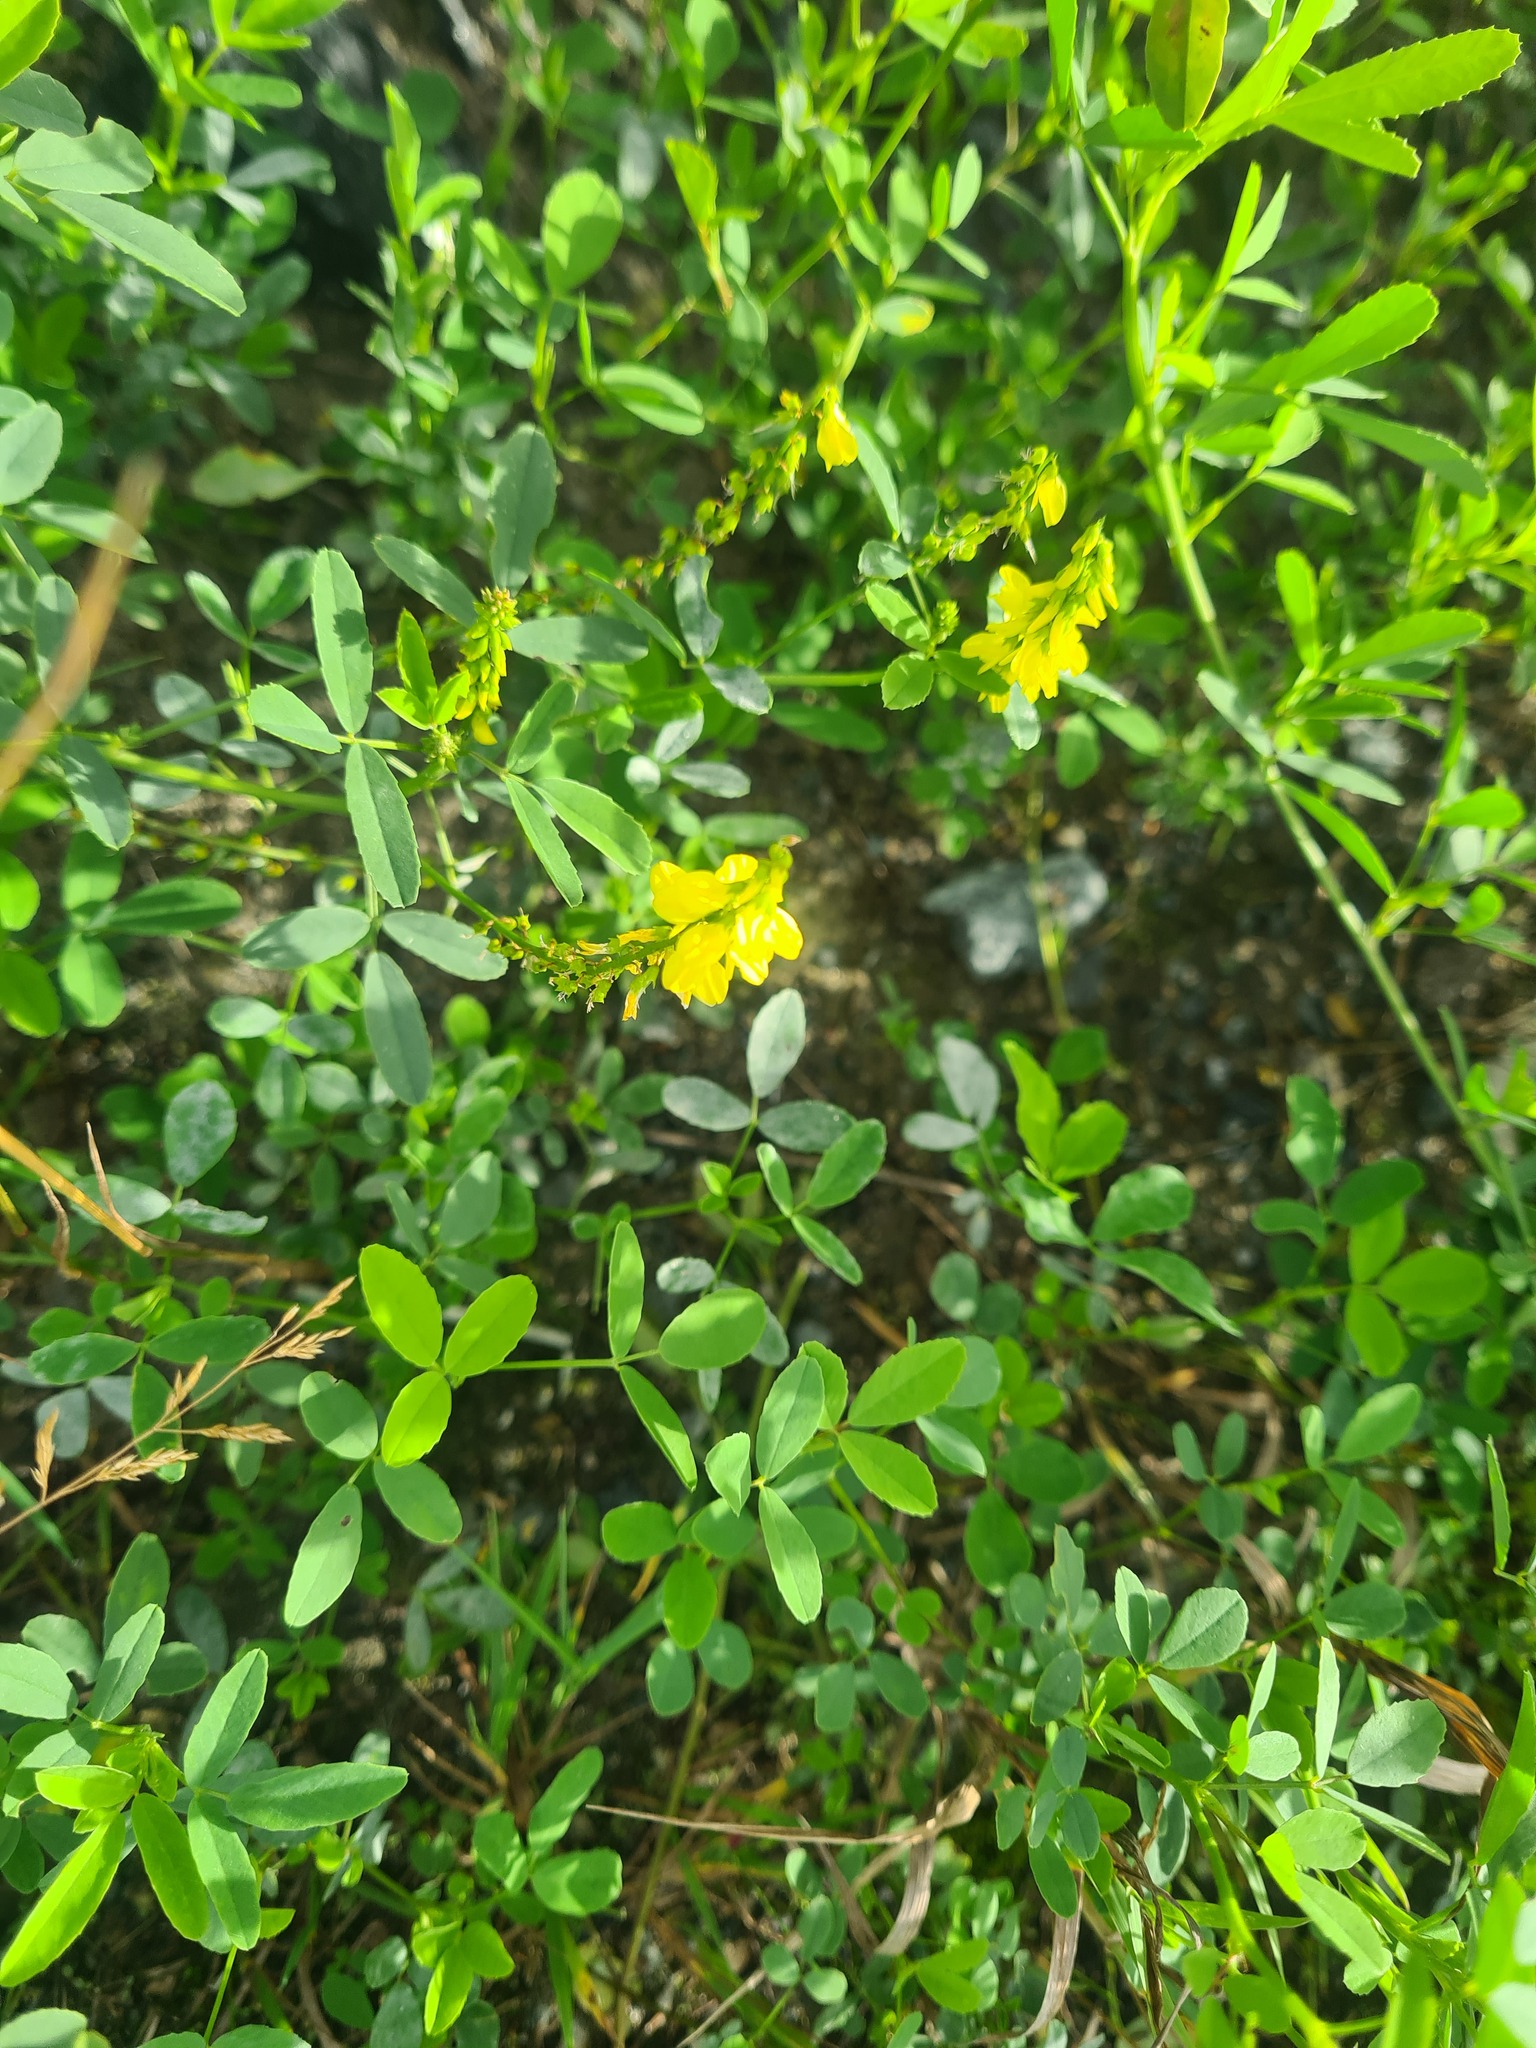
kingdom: Plantae
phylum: Tracheophyta
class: Magnoliopsida
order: Fabales
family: Fabaceae
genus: Melilotus
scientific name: Melilotus officinalis
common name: Sweetclover
